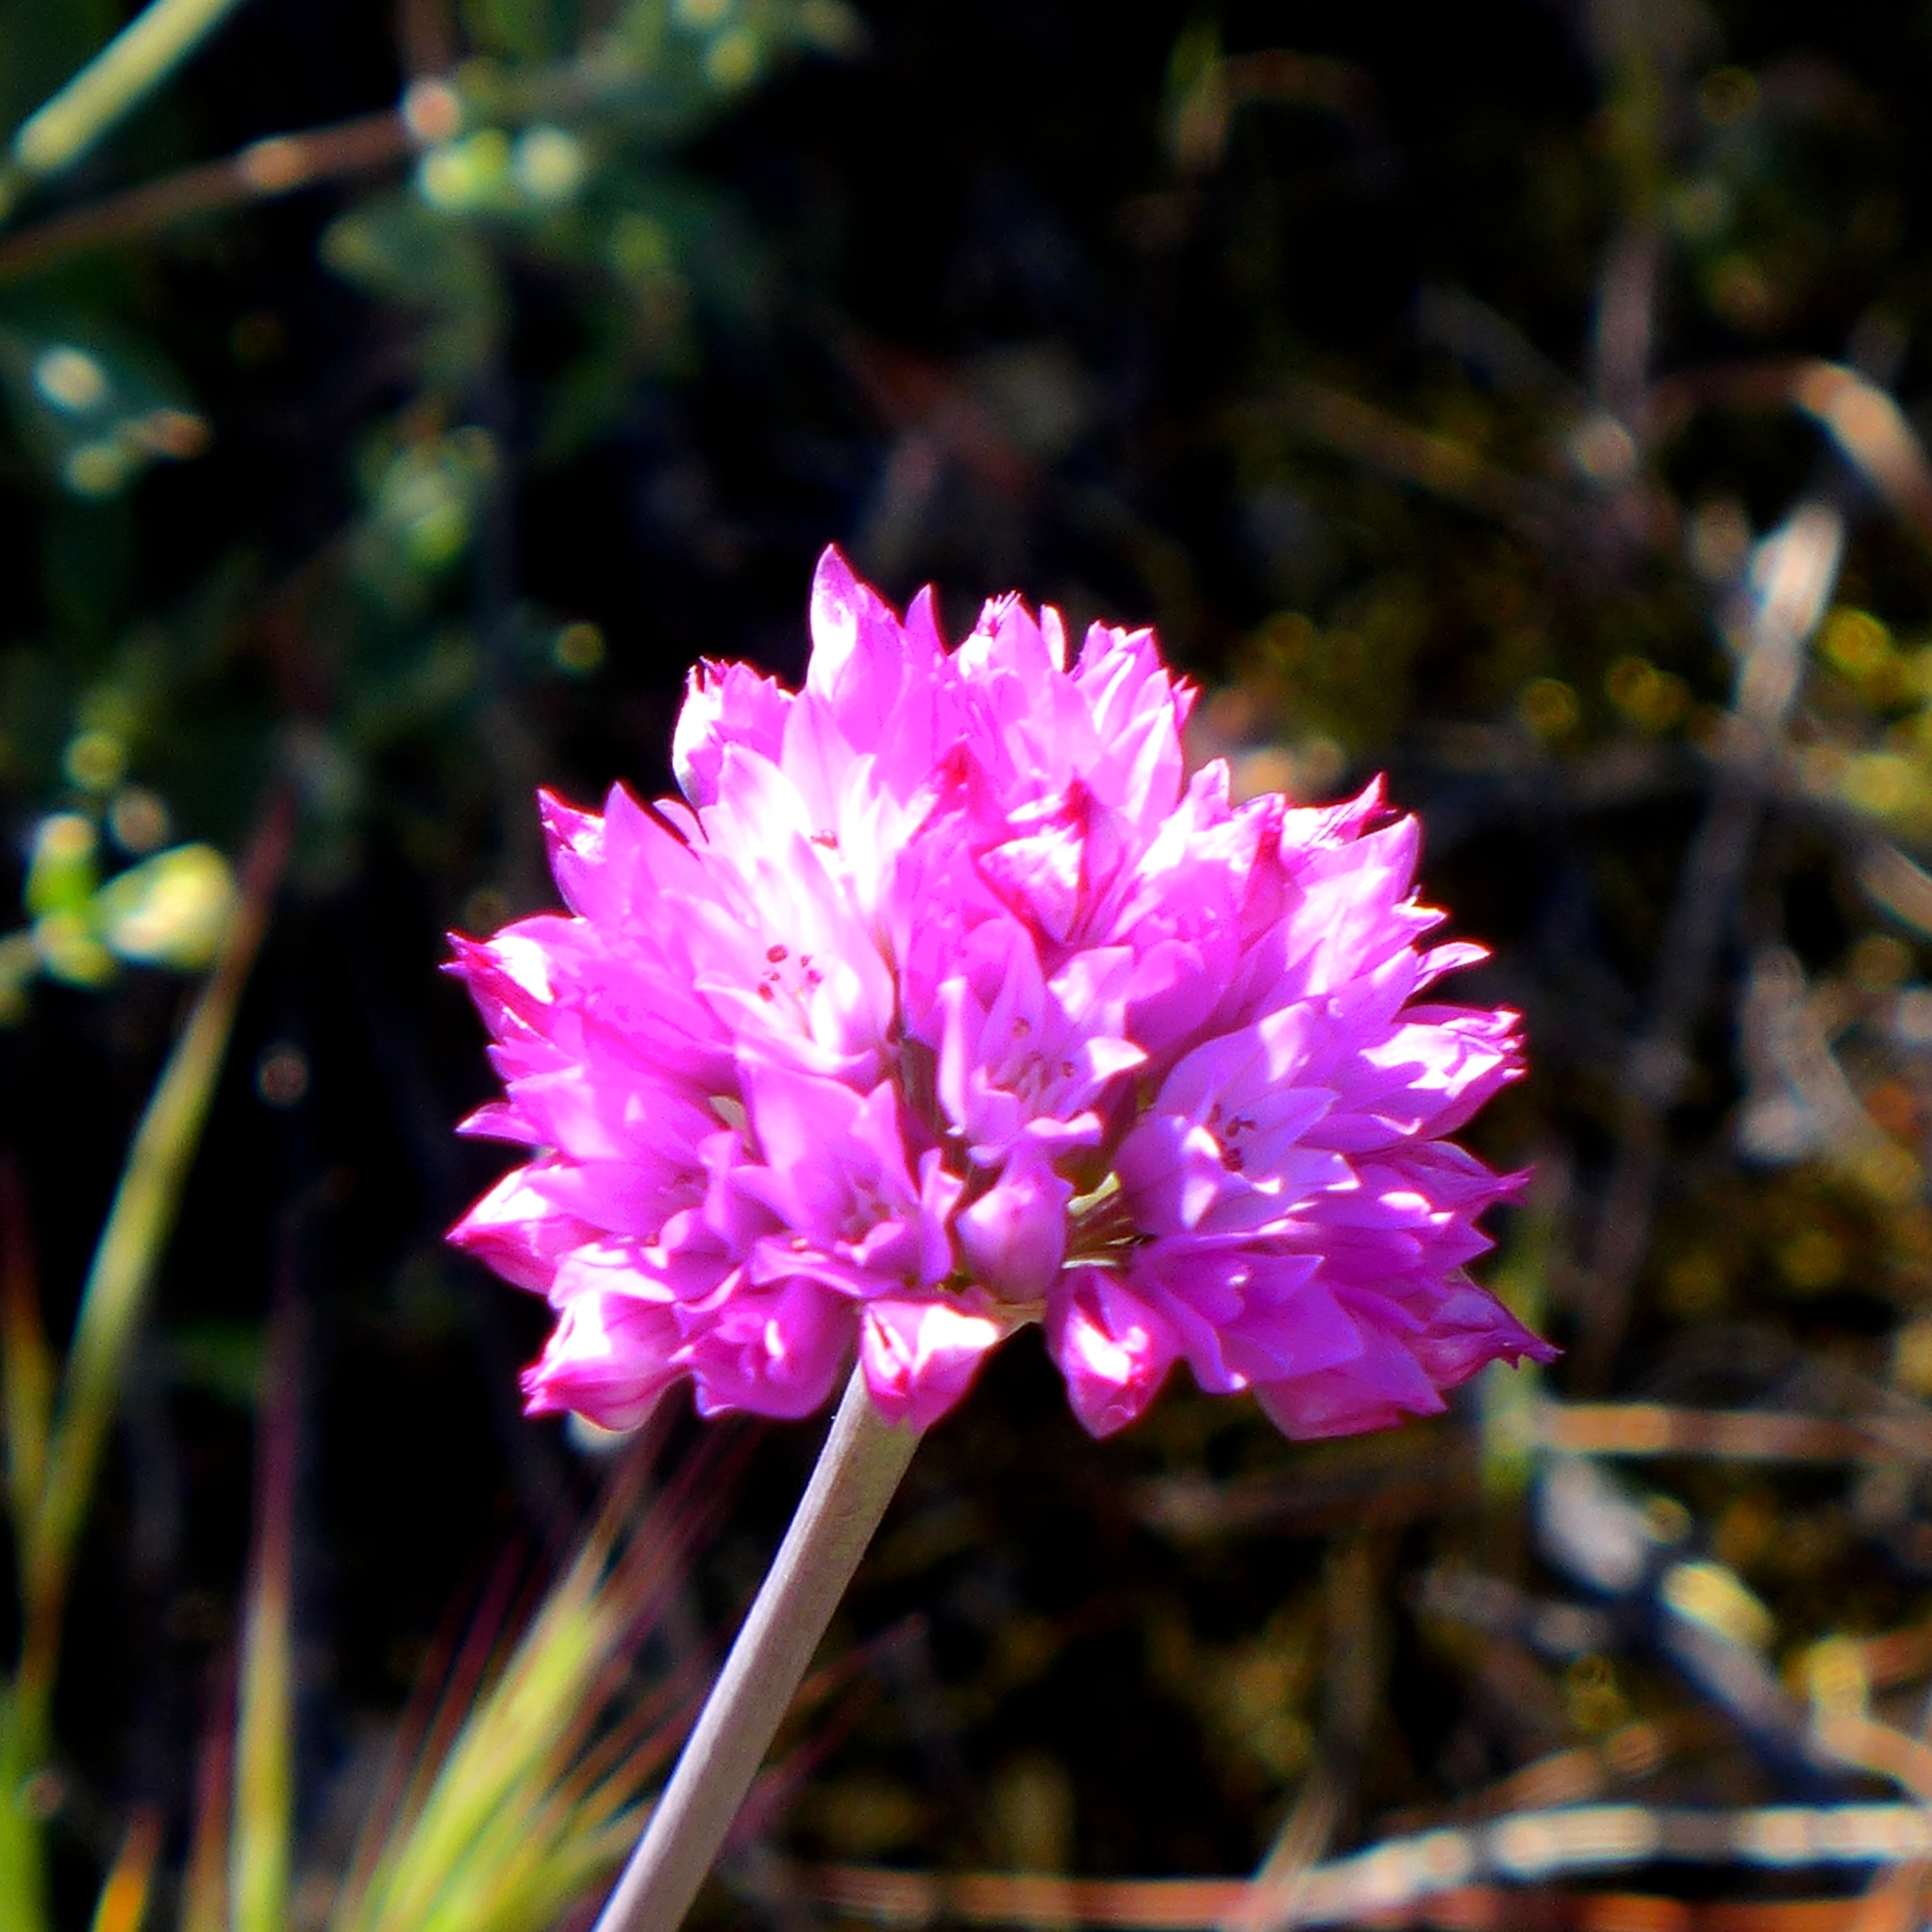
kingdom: Plantae
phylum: Tracheophyta
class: Liliopsida
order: Asparagales
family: Amaryllidaceae
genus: Allium
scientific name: Allium serra
